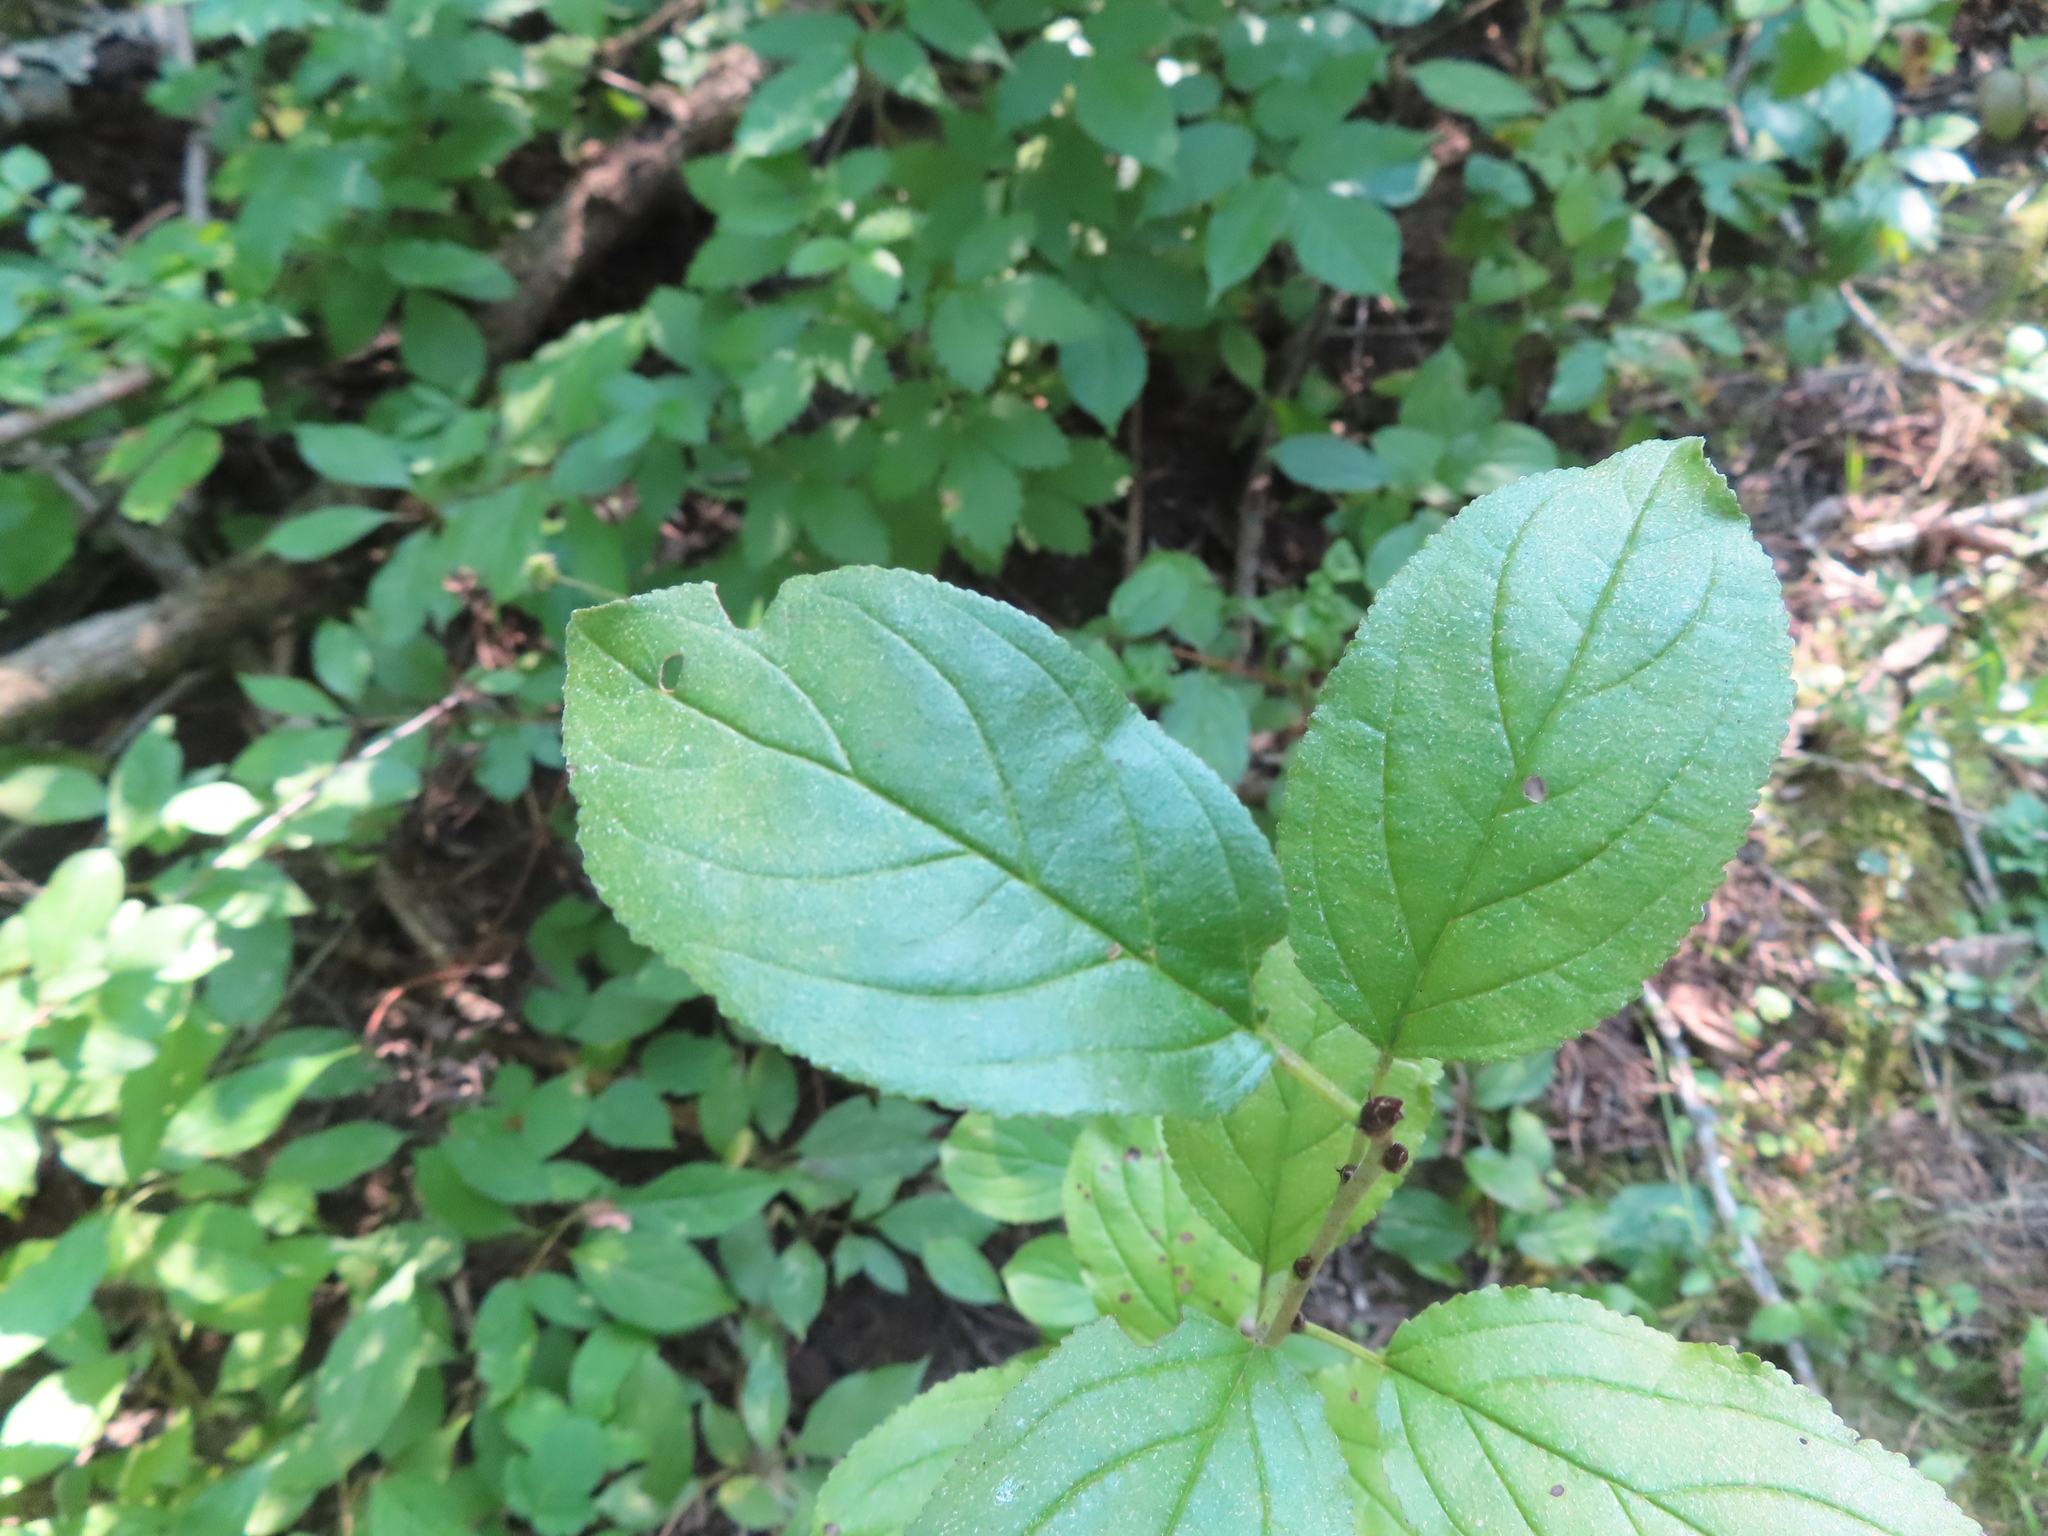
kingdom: Plantae
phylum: Tracheophyta
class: Magnoliopsida
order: Rosales
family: Rhamnaceae
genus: Rhamnus
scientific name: Rhamnus cathartica
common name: Common buckthorn
